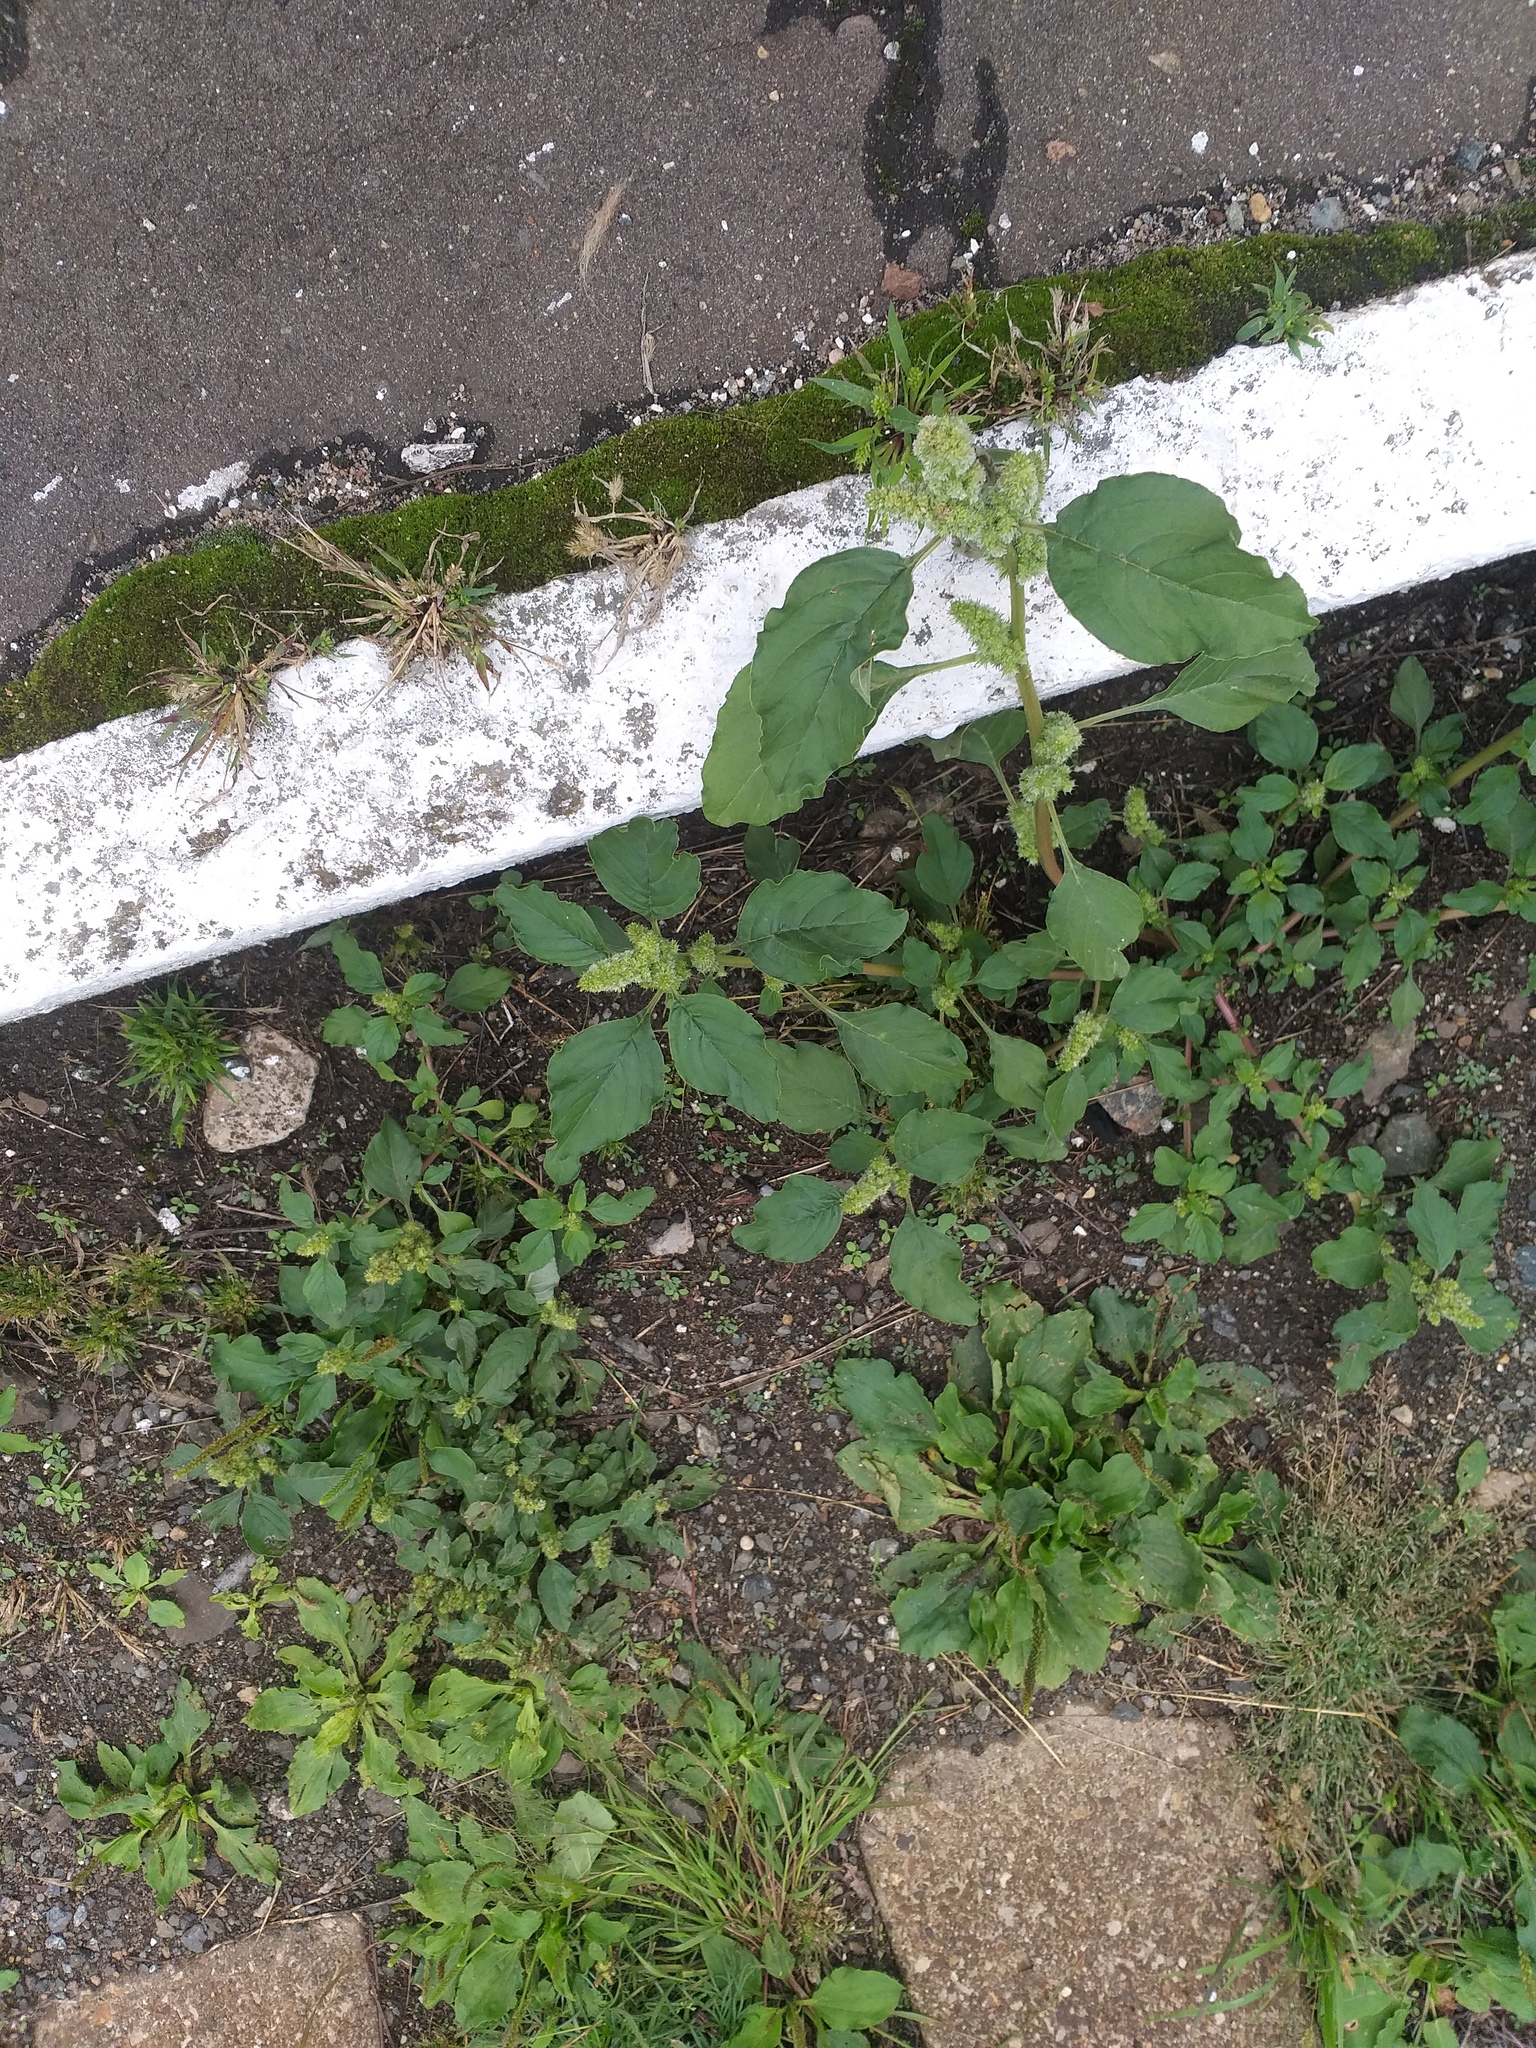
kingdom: Plantae
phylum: Tracheophyta
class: Magnoliopsida
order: Caryophyllales
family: Amaranthaceae
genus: Amaranthus
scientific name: Amaranthus retroflexus
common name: Redroot amaranth
